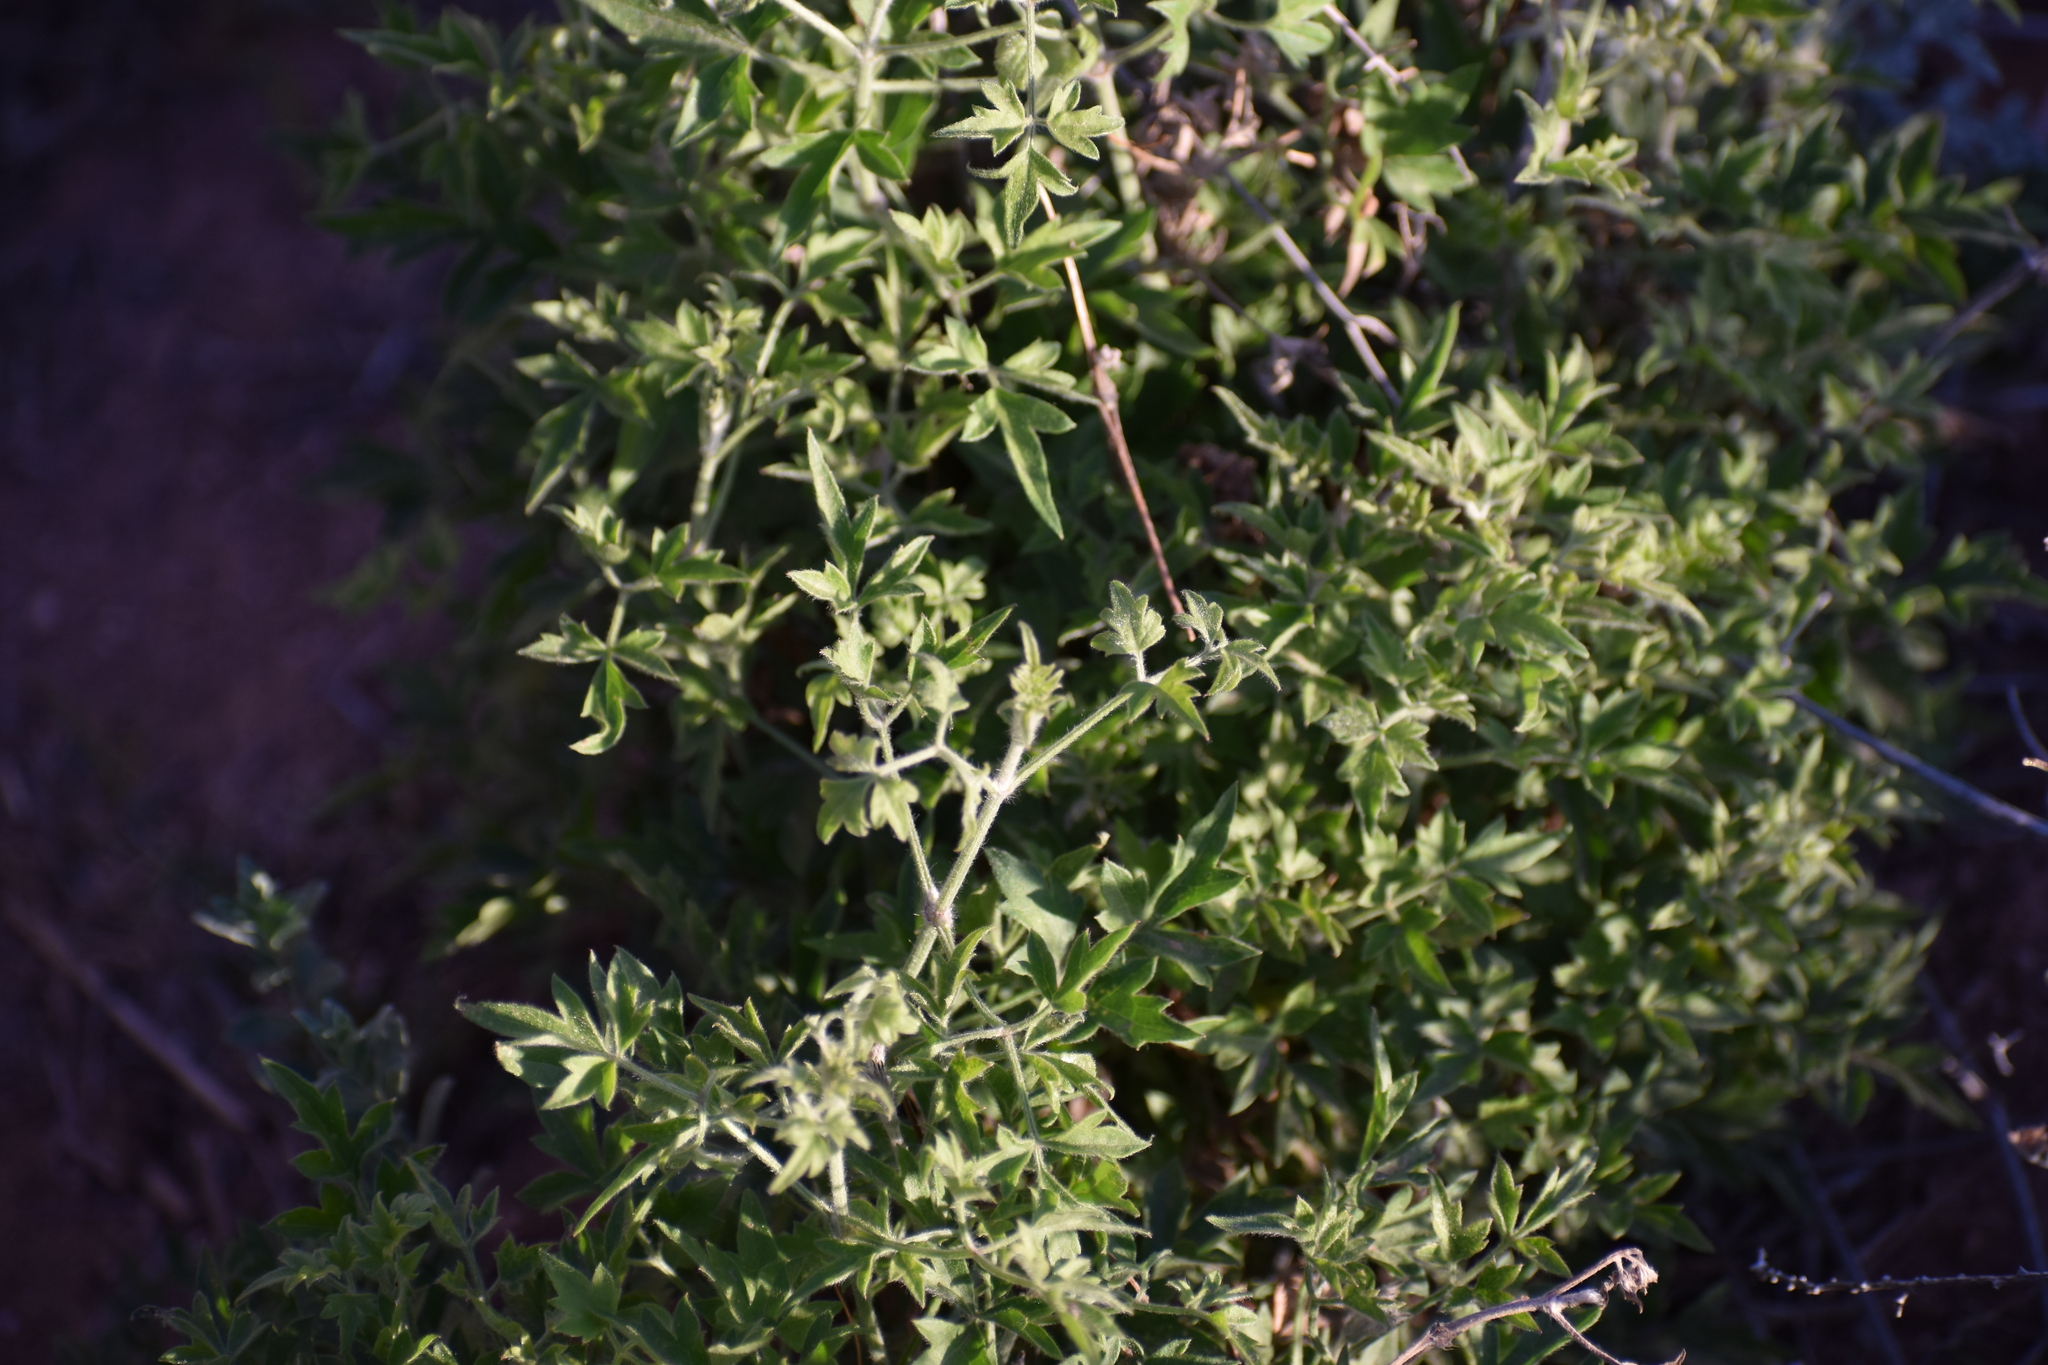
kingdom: Plantae
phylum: Tracheophyta
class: Magnoliopsida
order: Ranunculales
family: Ranunculaceae
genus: Clematis
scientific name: Clematis drummondii
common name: Texas virgin's bower
